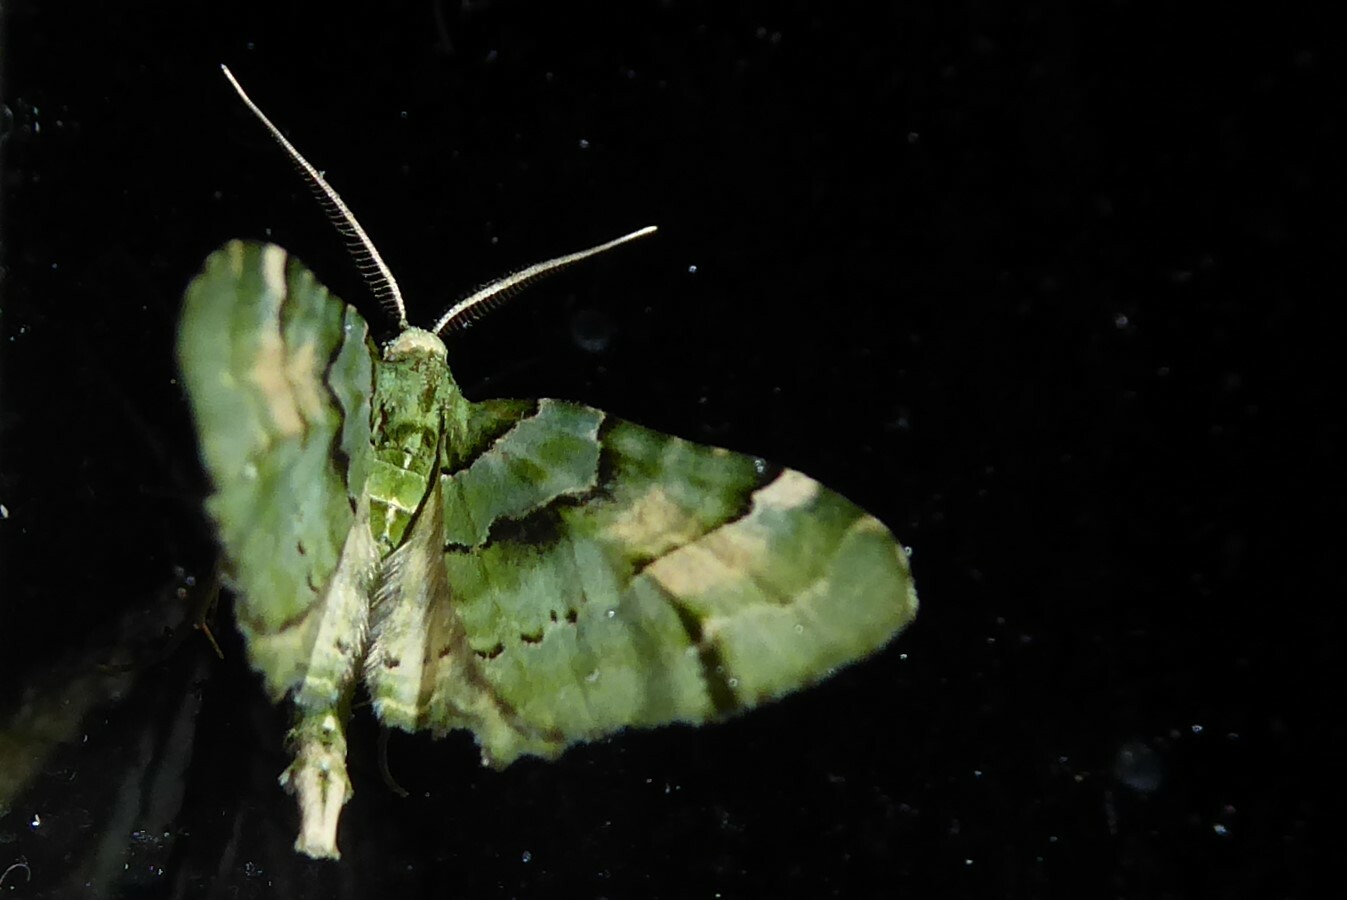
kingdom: Animalia
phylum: Arthropoda
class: Insecta
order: Lepidoptera
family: Geometridae
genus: Elvia
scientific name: Elvia glaucata
